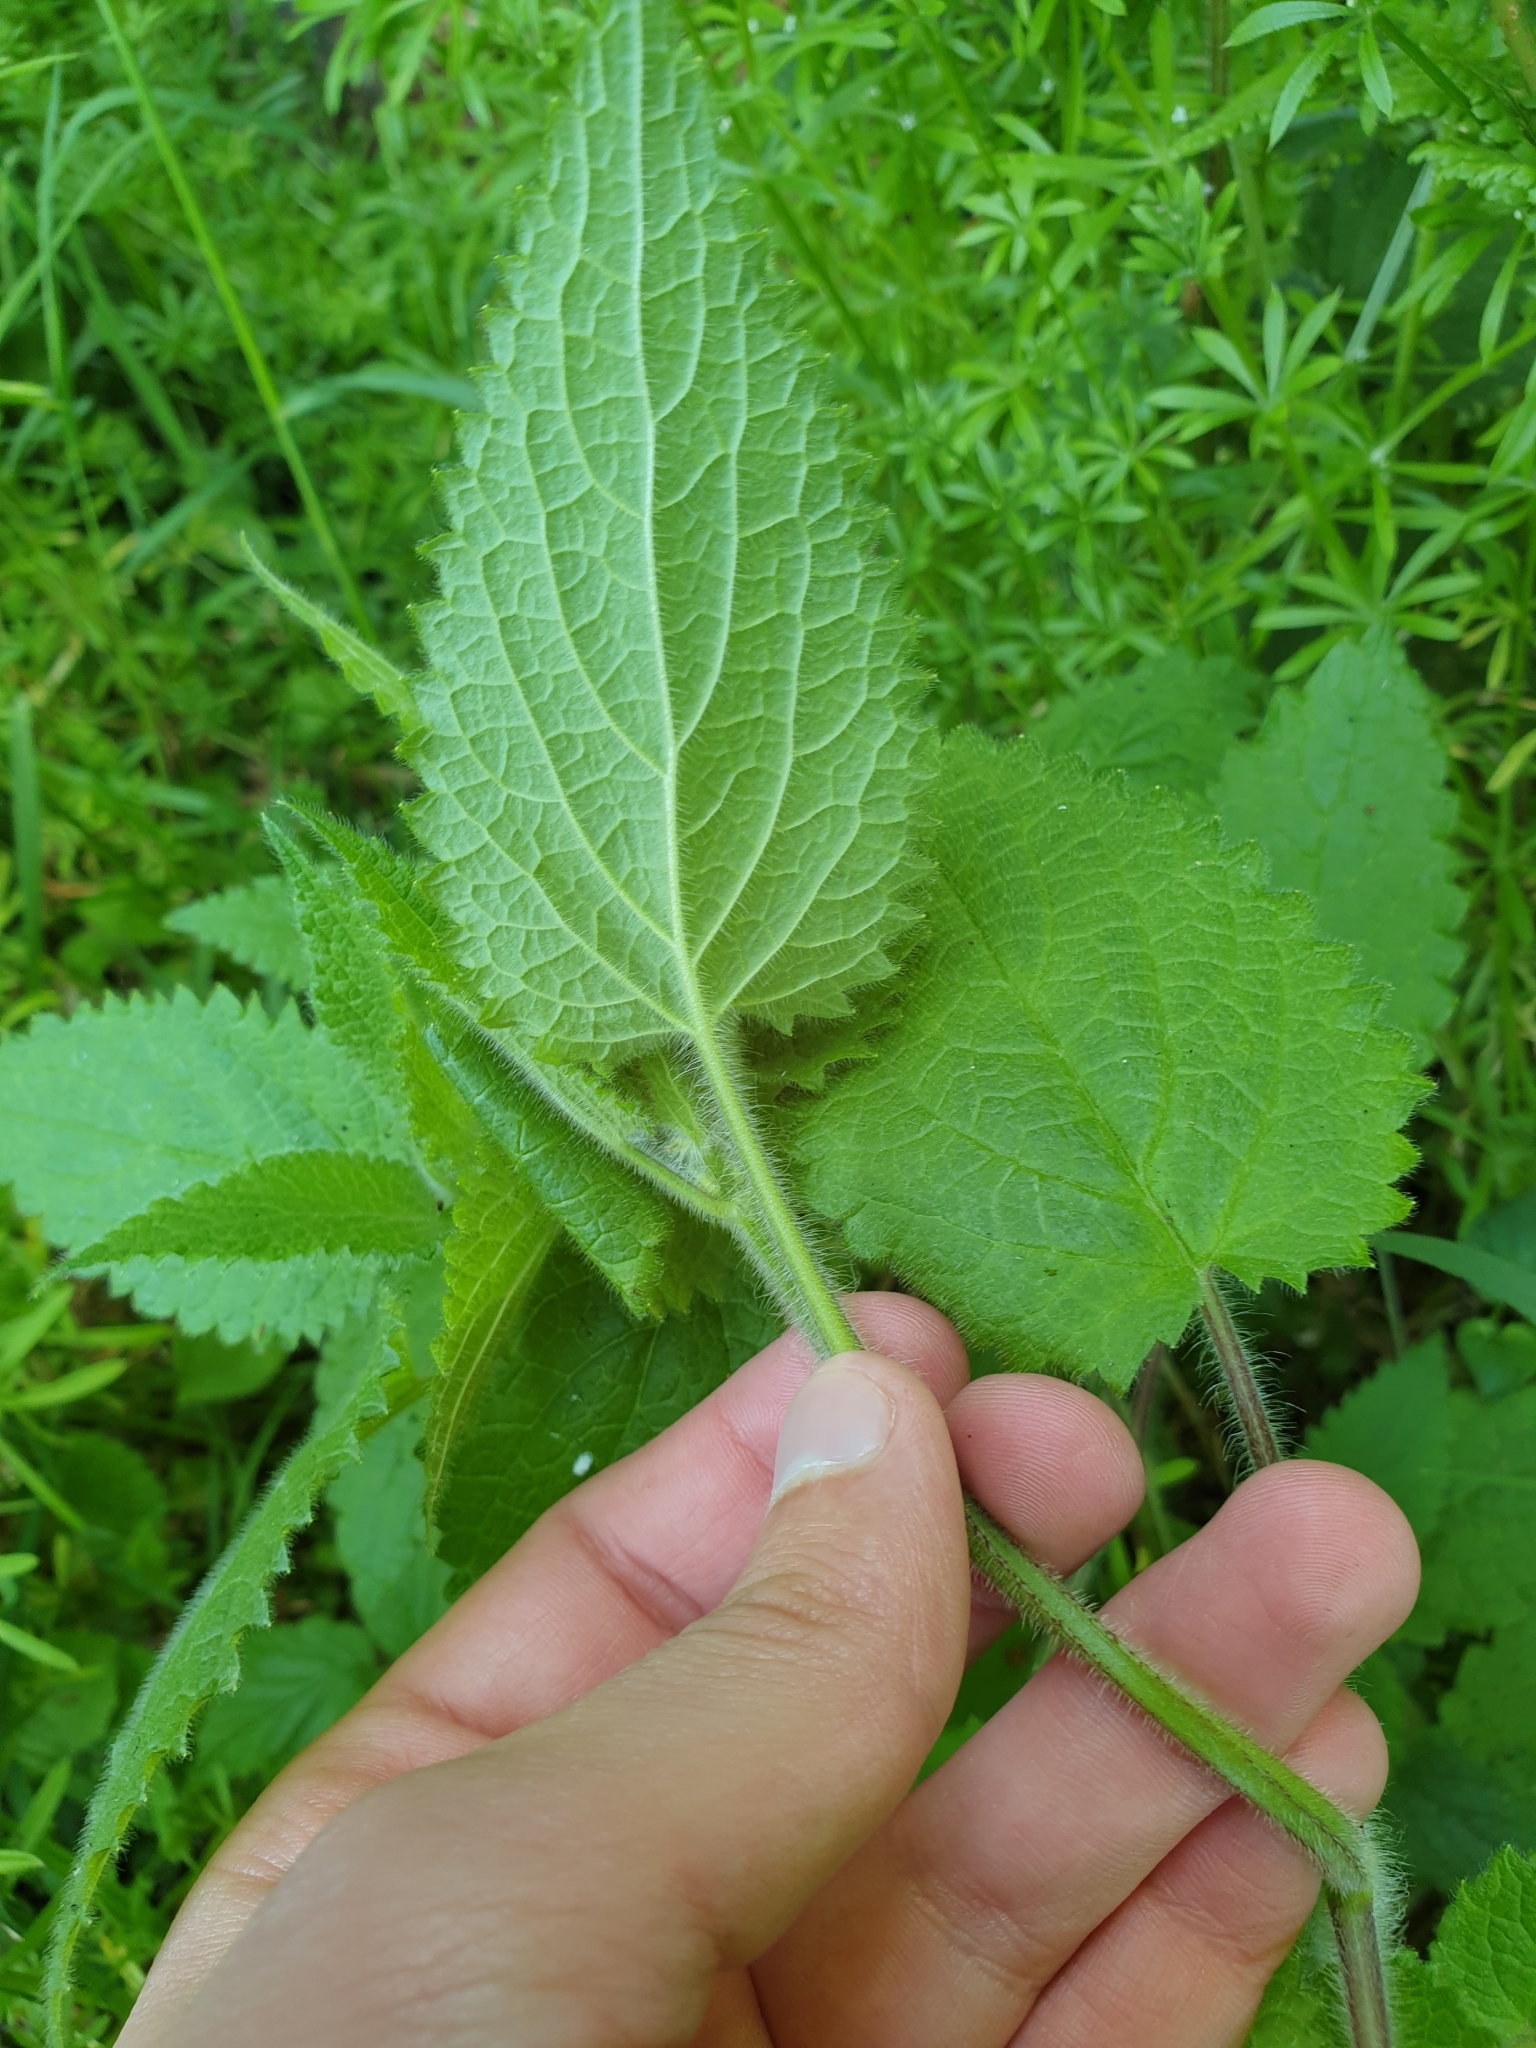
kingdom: Plantae
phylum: Tracheophyta
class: Magnoliopsida
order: Lamiales
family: Lamiaceae
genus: Stachys
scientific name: Stachys sylvatica
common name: Hedge woundwort
